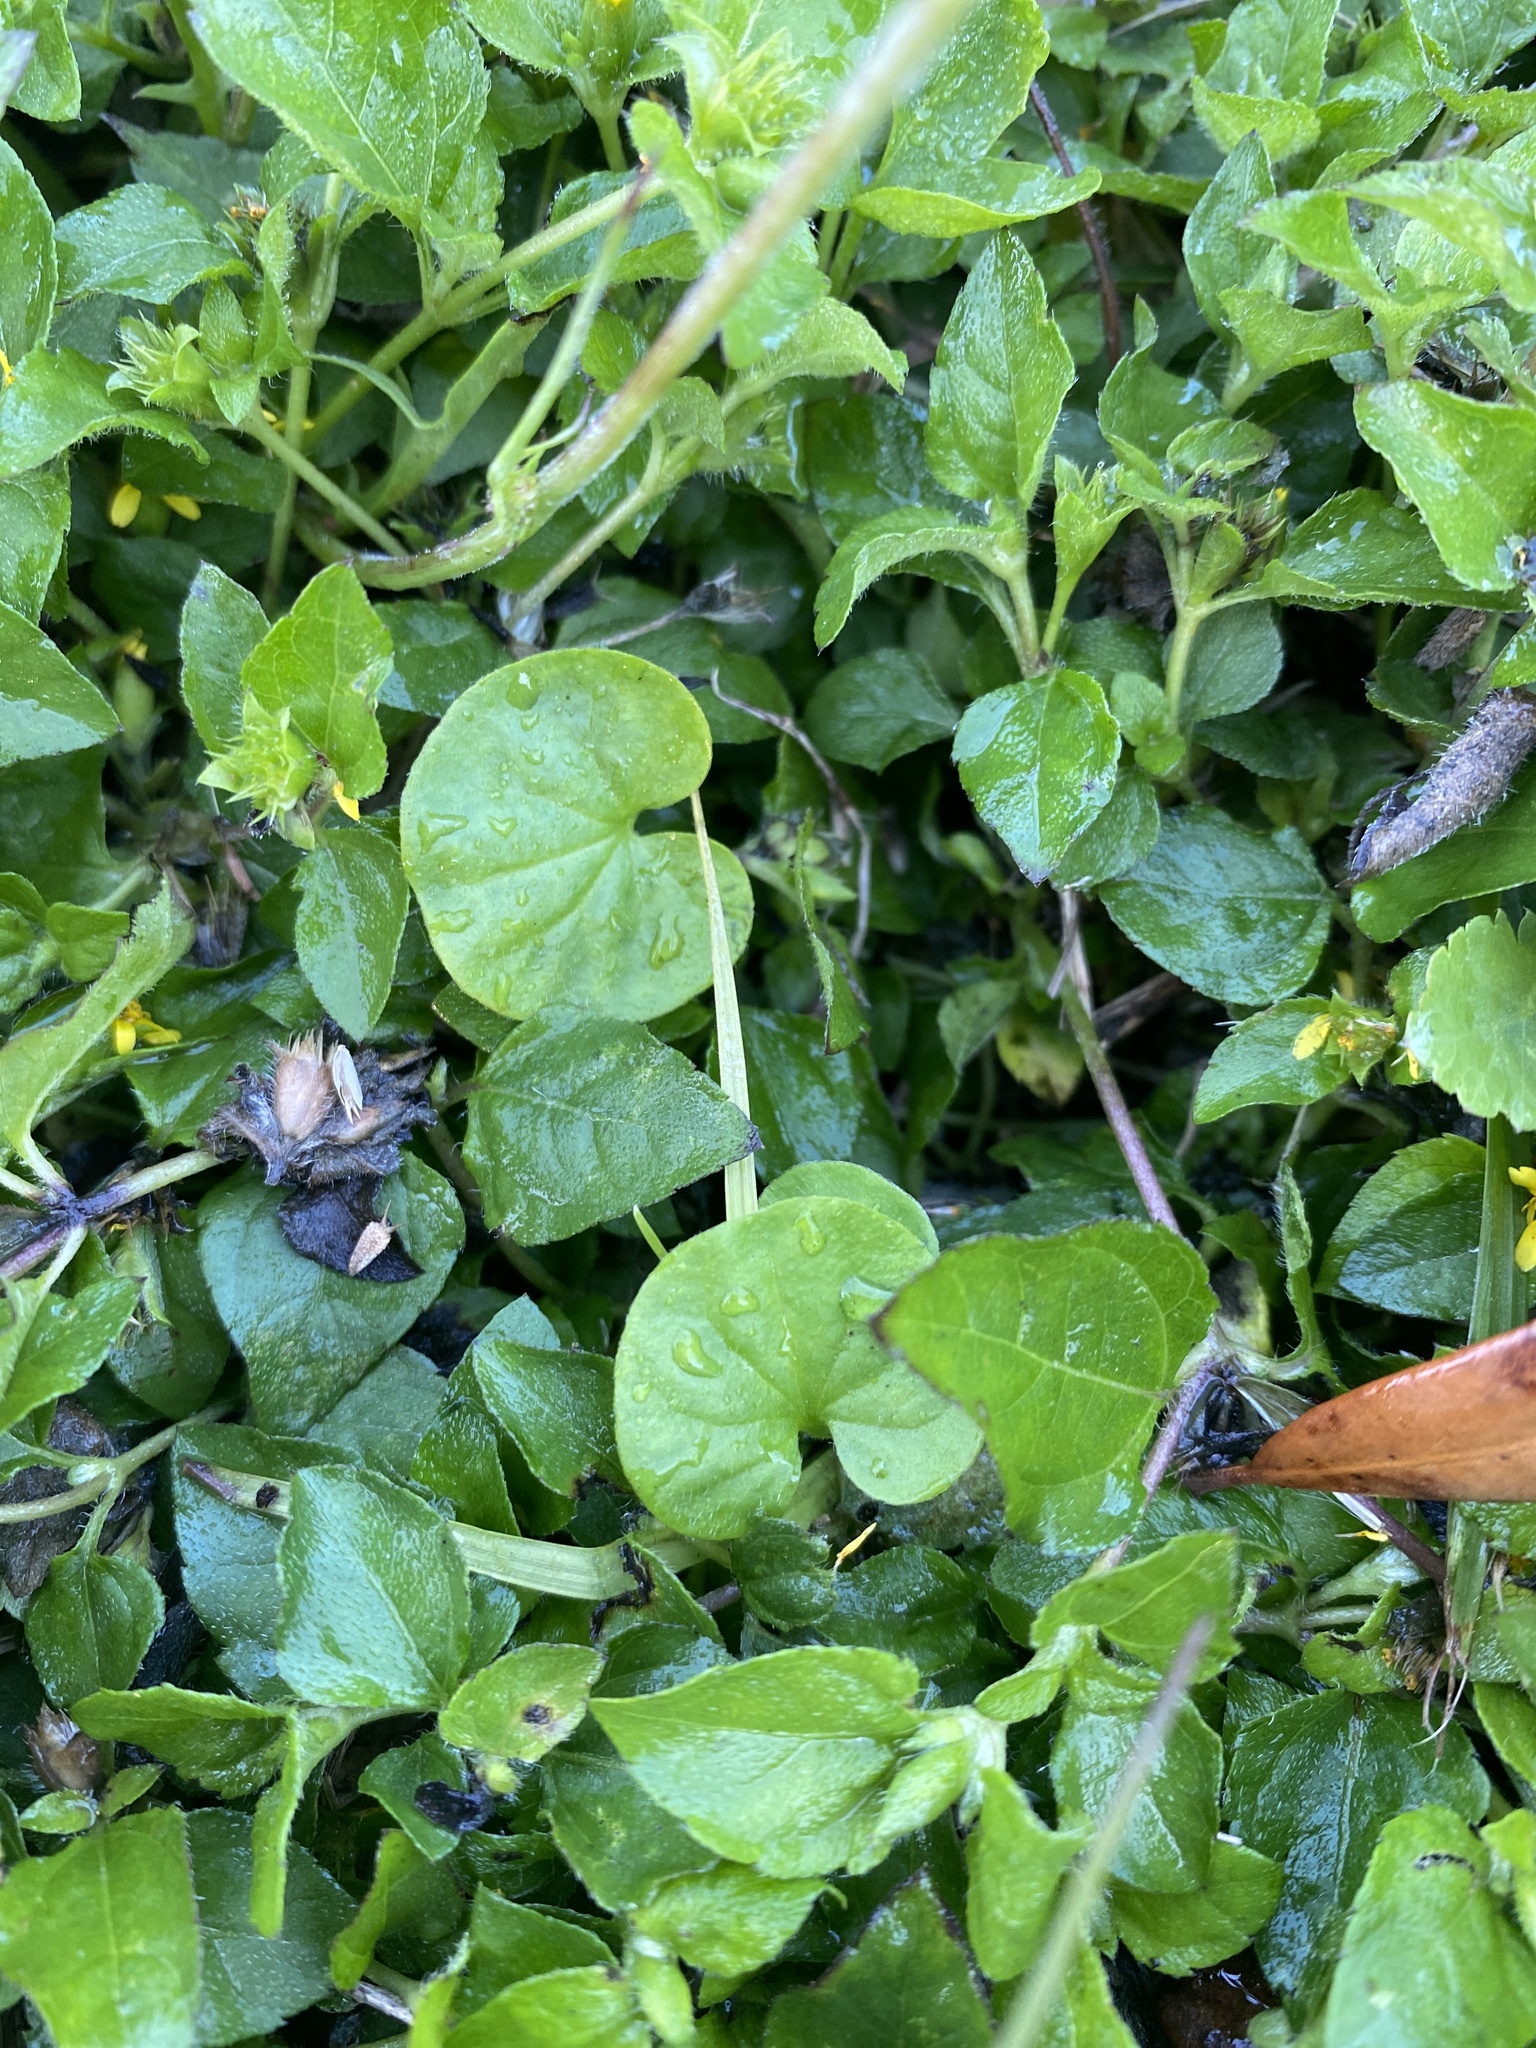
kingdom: Plantae
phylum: Tracheophyta
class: Magnoliopsida
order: Asterales
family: Asteraceae
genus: Calyptocarpus
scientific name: Calyptocarpus vialis
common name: Straggler daisy
